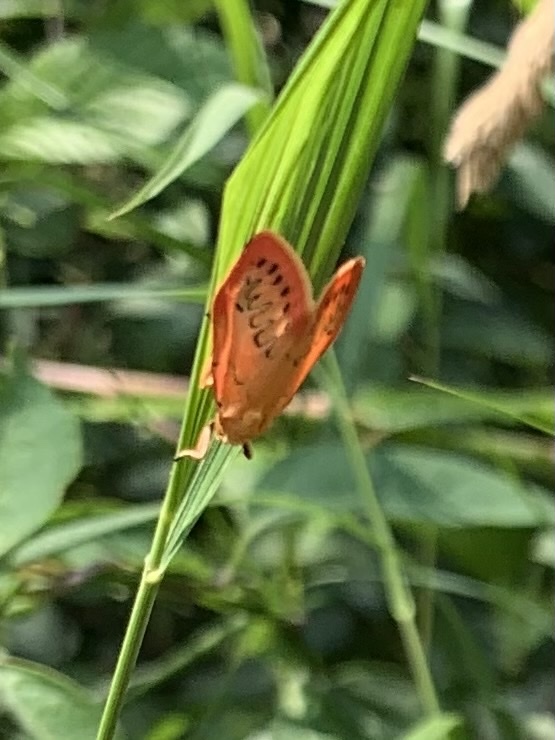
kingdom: Animalia
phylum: Arthropoda
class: Insecta
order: Lepidoptera
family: Erebidae
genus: Miltochrista
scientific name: Miltochrista miniata
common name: Rosy footman
